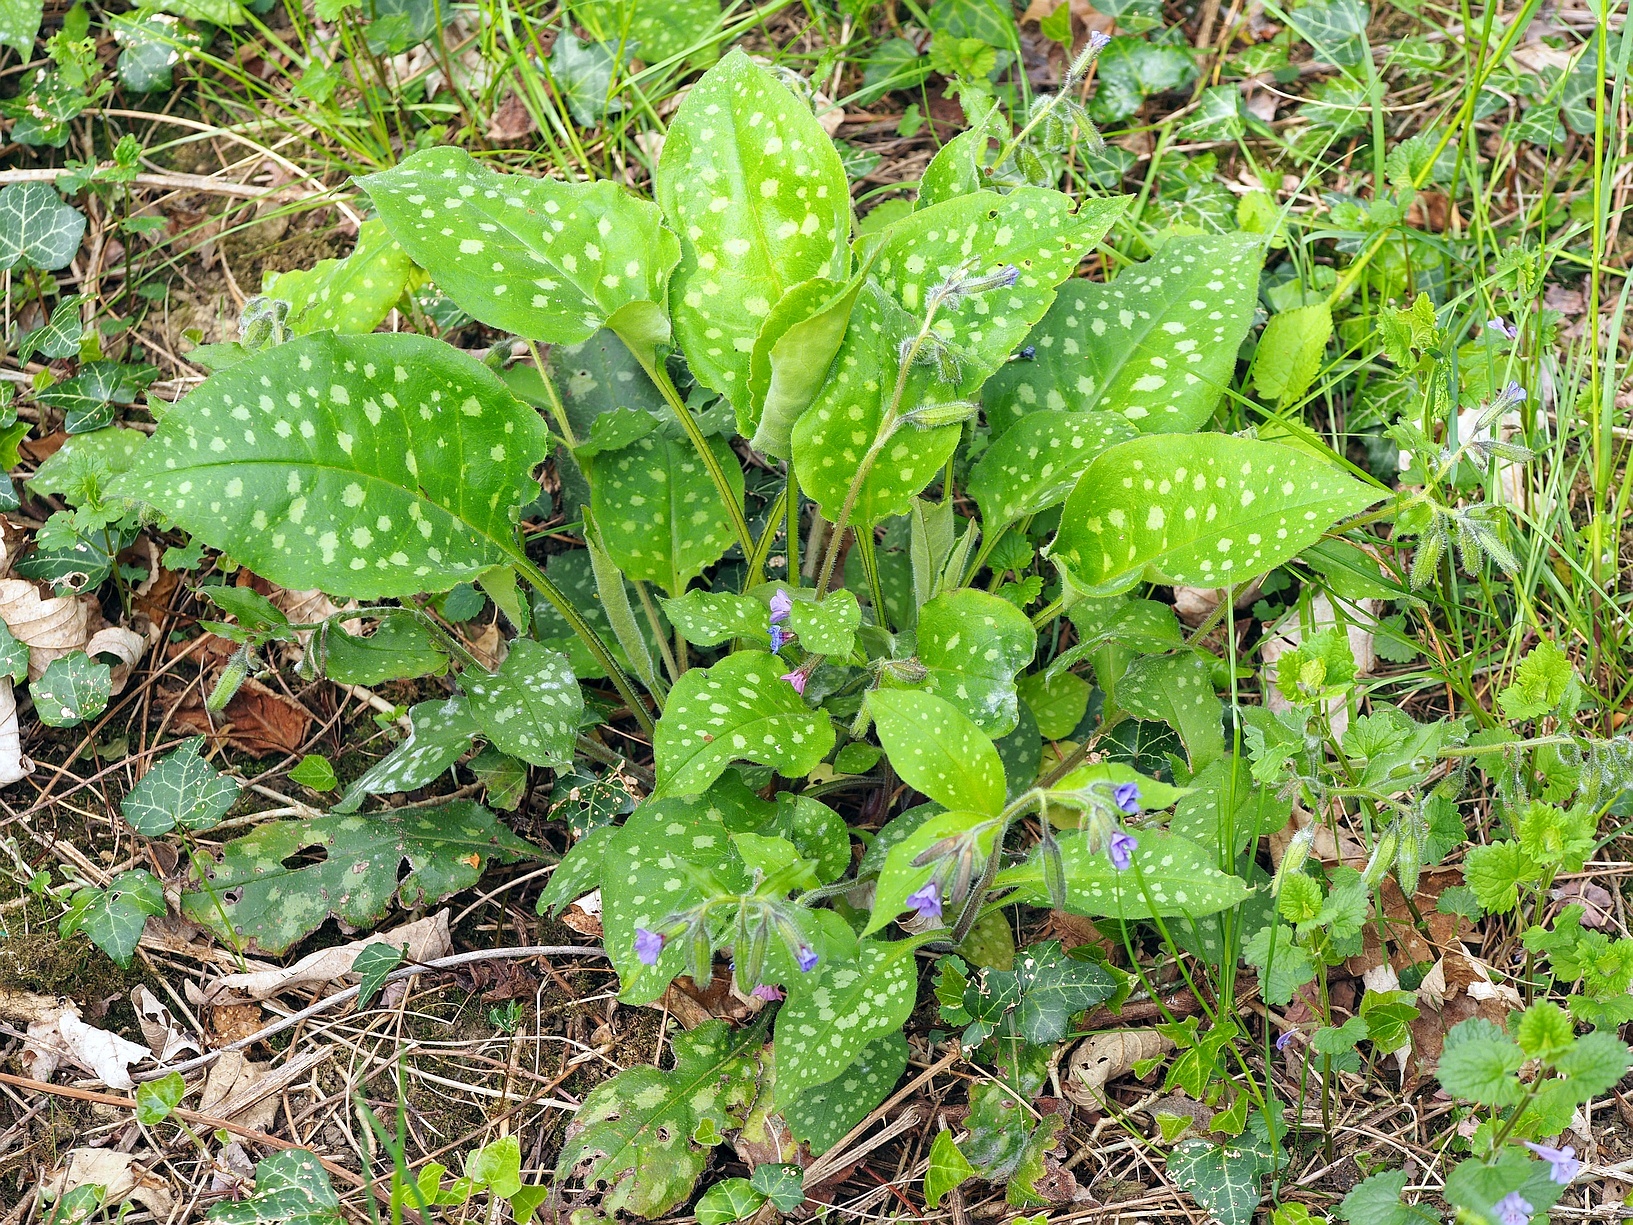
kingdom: Plantae
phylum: Tracheophyta
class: Magnoliopsida
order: Boraginales
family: Boraginaceae
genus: Pulmonaria
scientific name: Pulmonaria officinalis
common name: Lungwort
